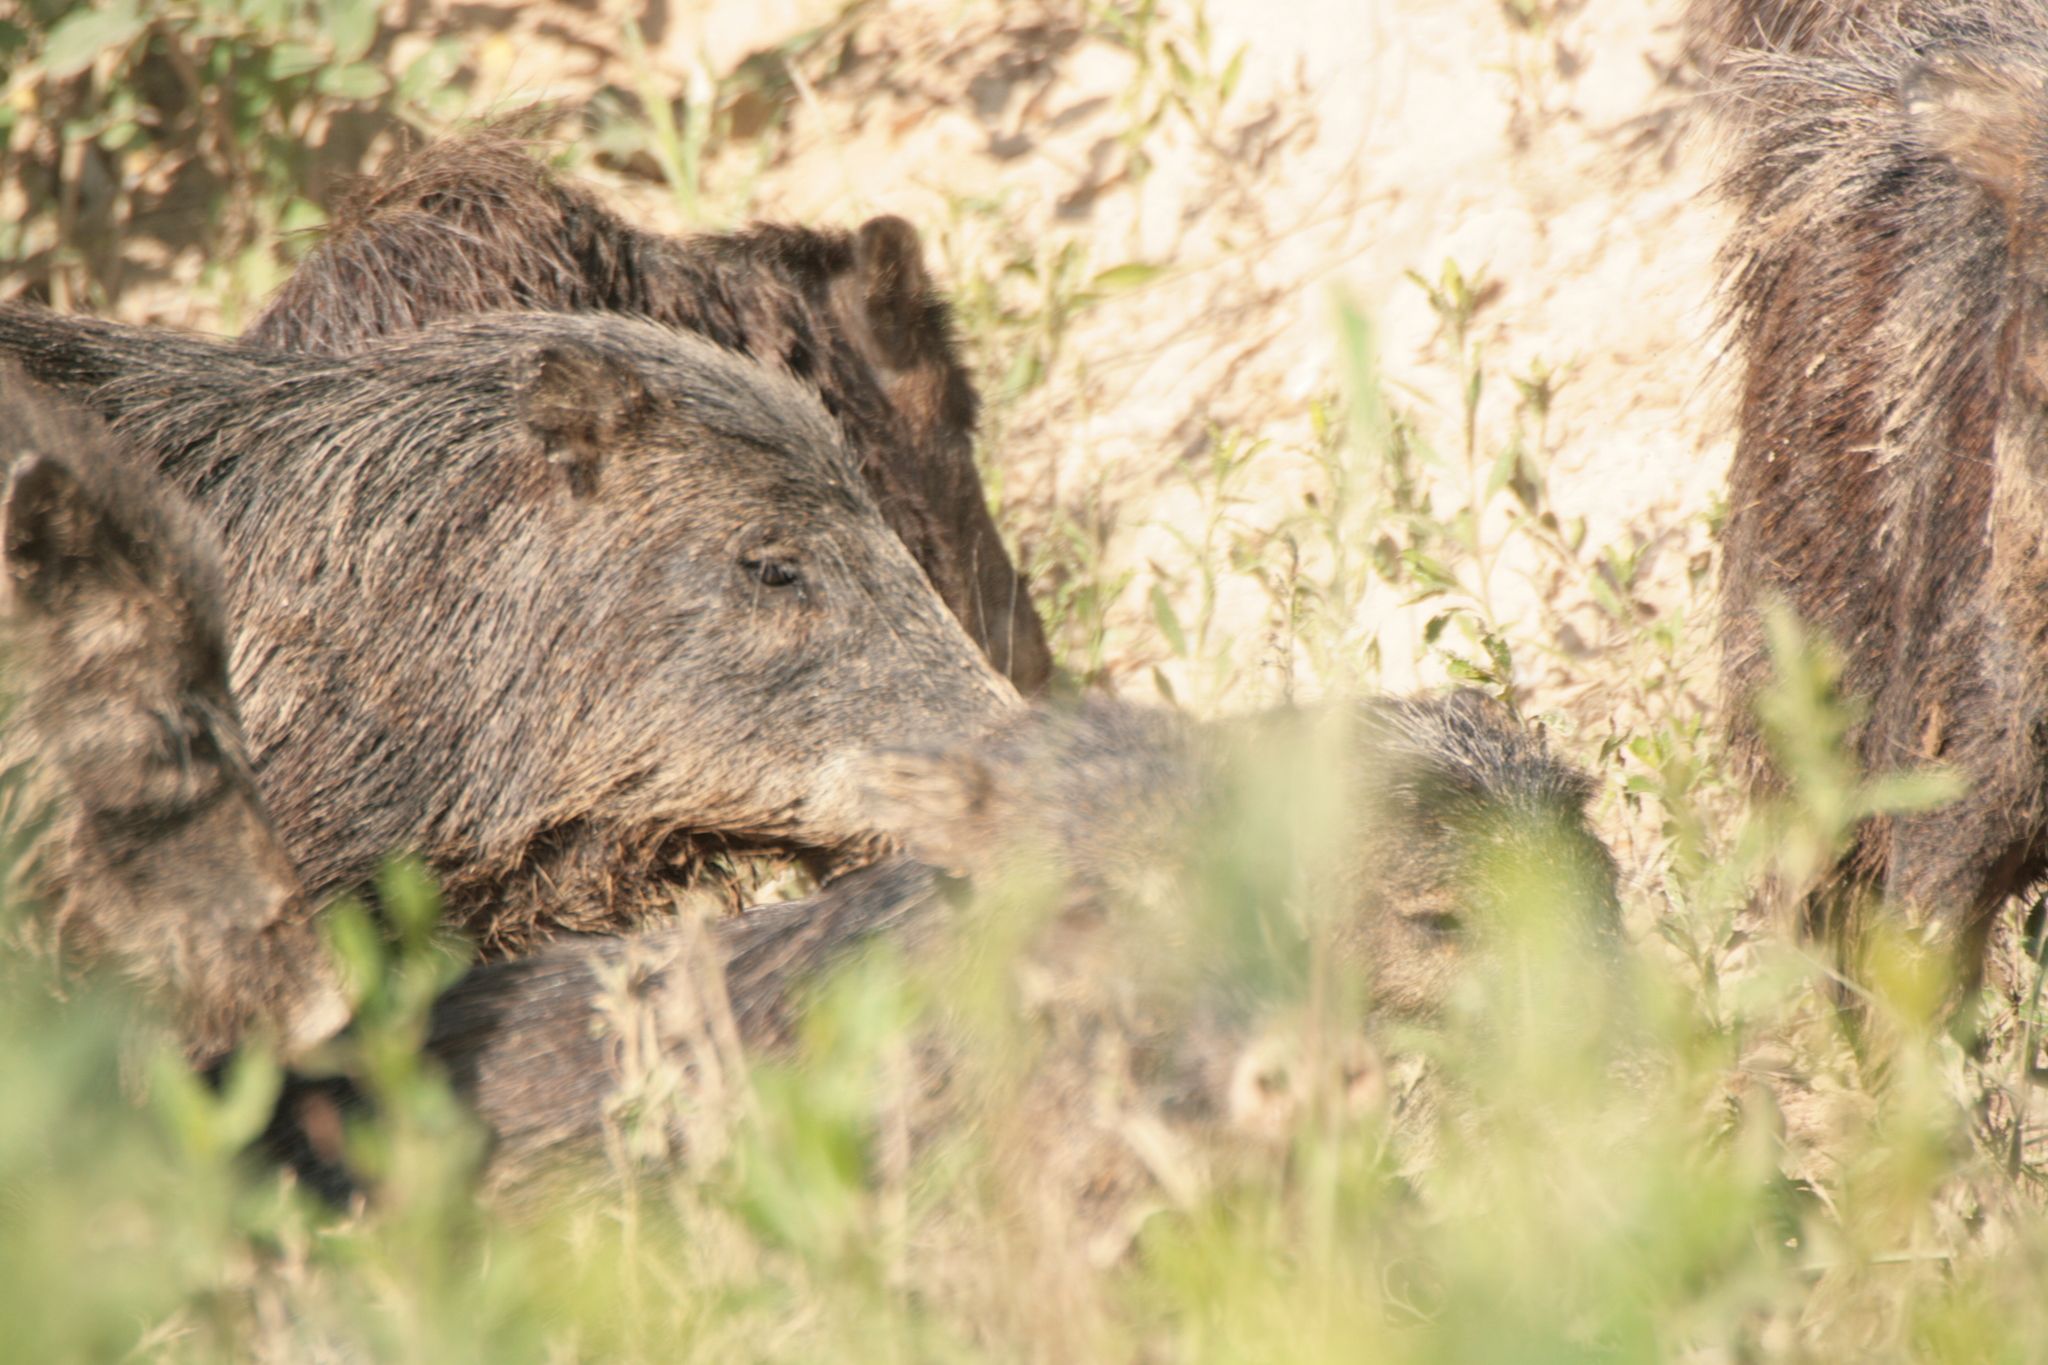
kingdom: Animalia
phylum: Chordata
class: Mammalia
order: Artiodactyla
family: Tayassuidae
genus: Tayassu
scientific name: Tayassu pecari
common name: White-lipped peccary
